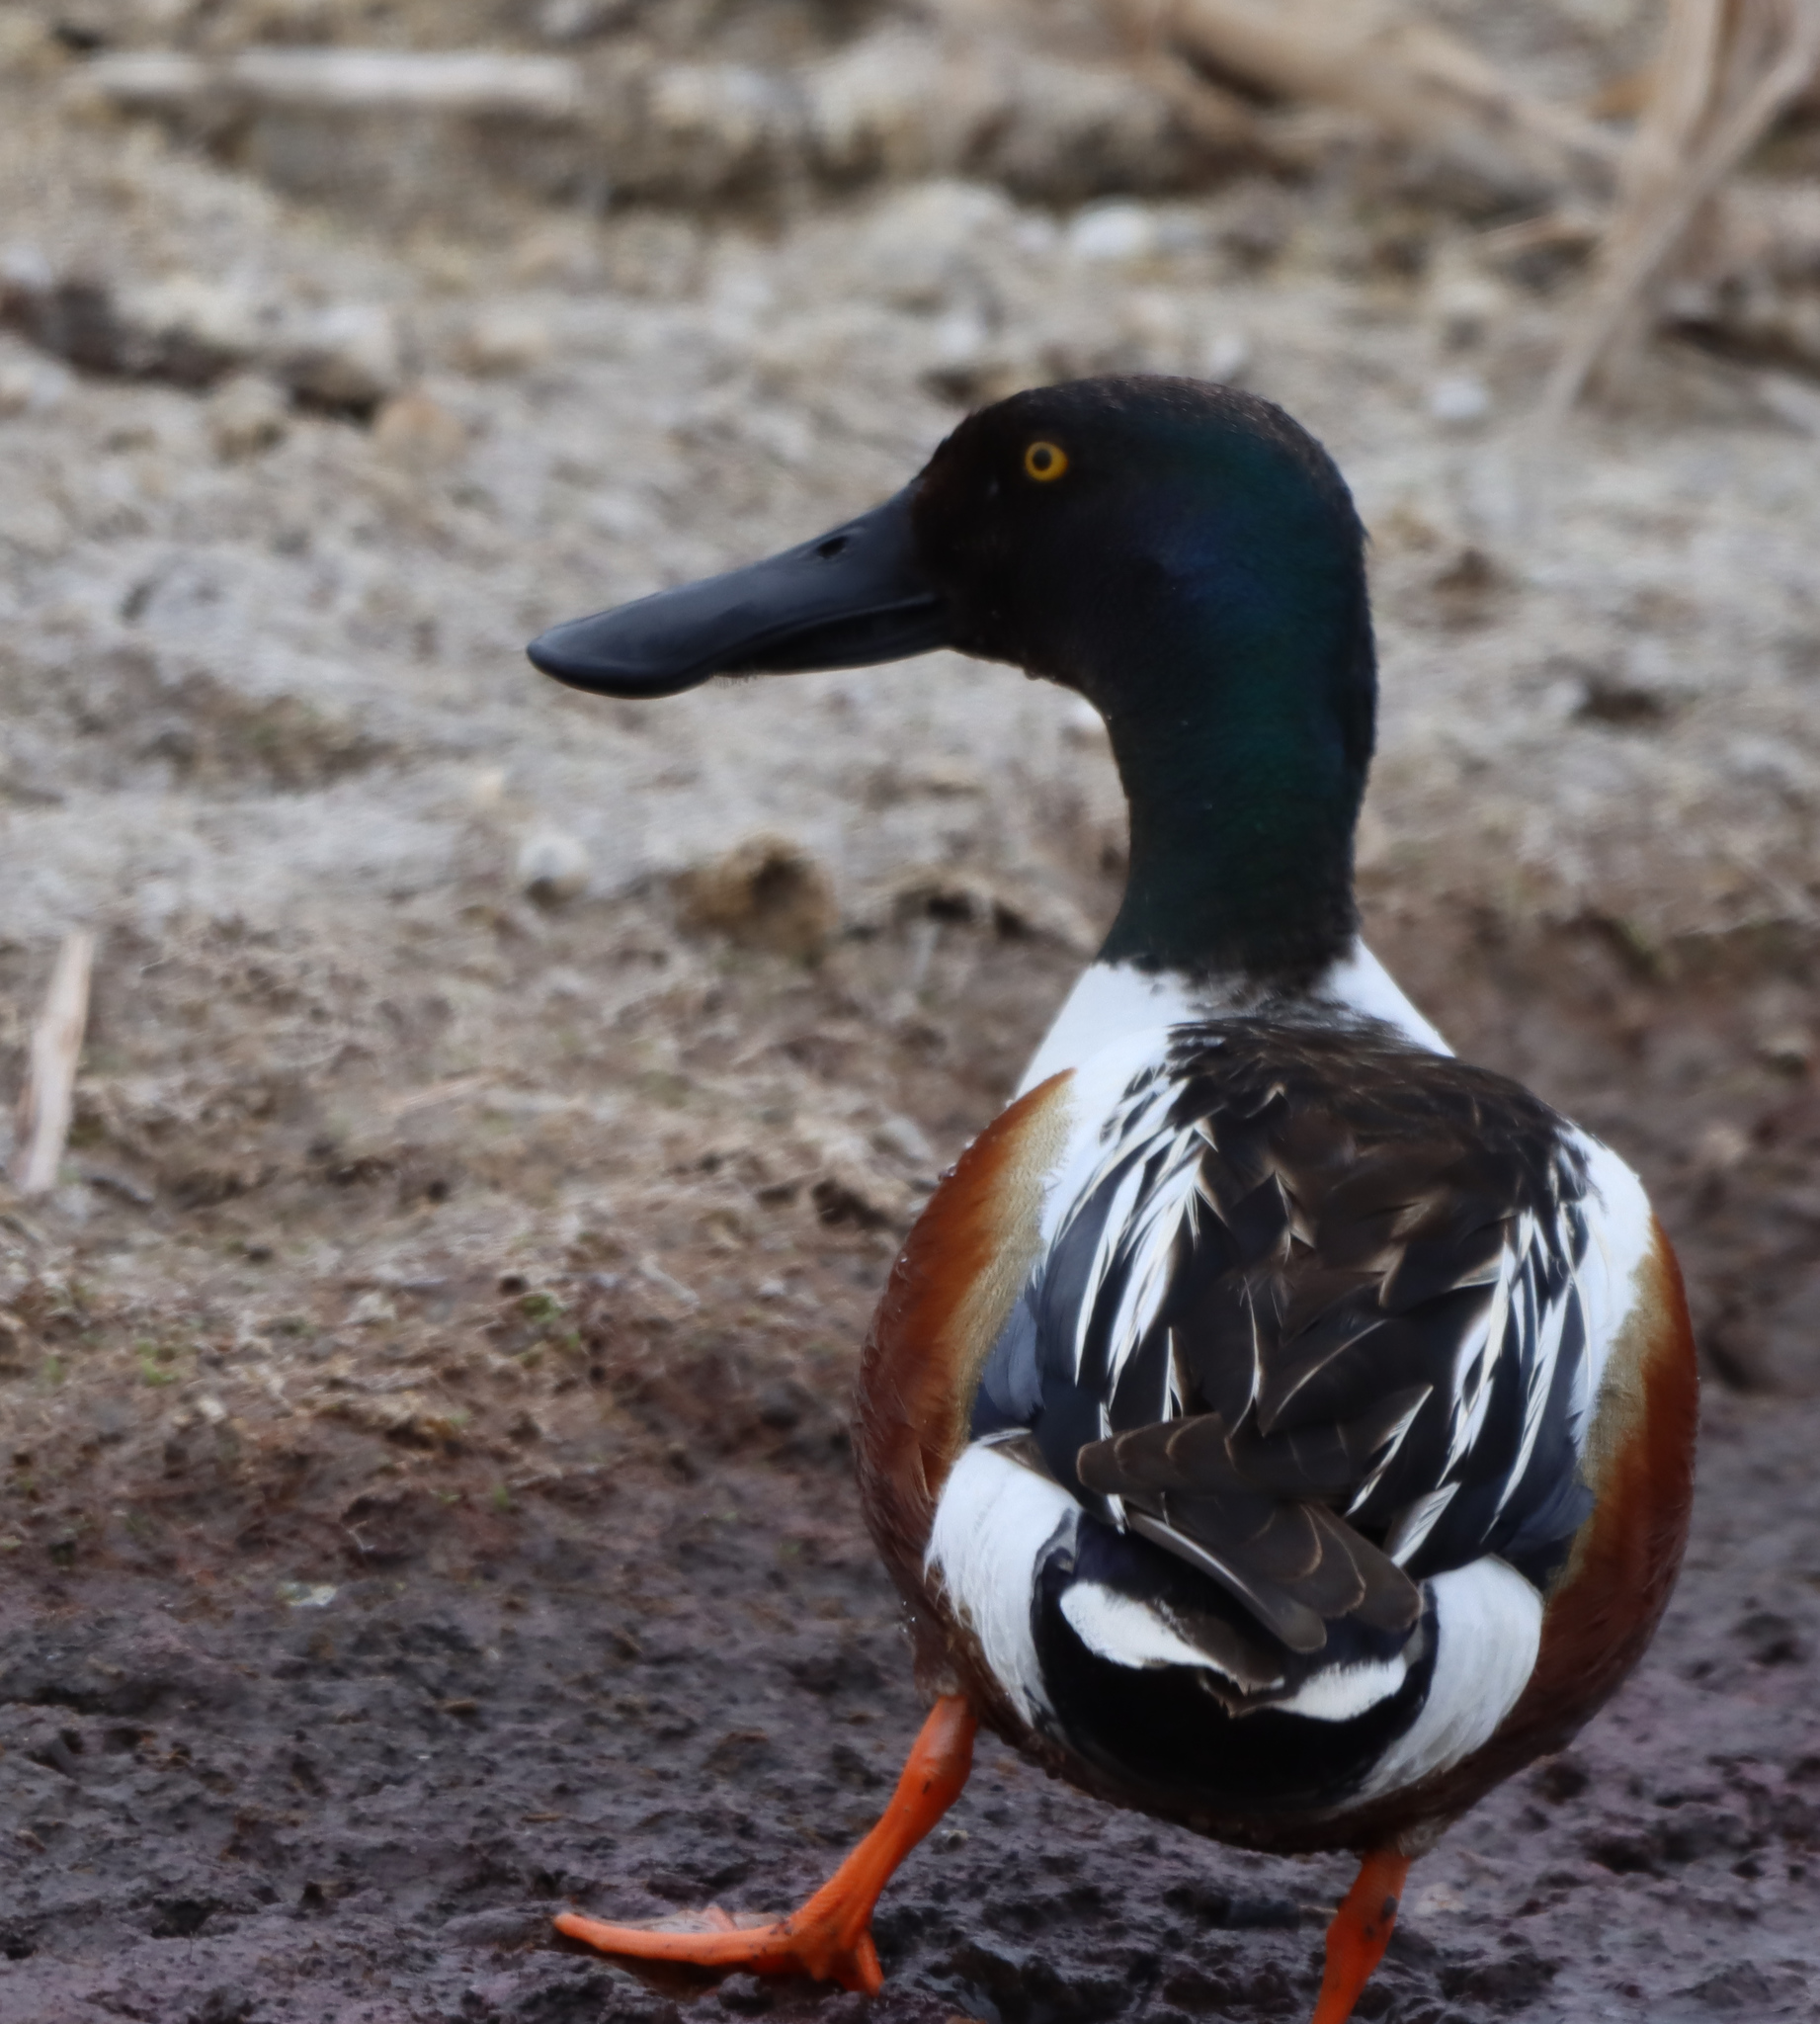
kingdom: Animalia
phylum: Chordata
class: Aves
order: Anseriformes
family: Anatidae
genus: Spatula
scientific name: Spatula clypeata
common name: Northern shoveler
